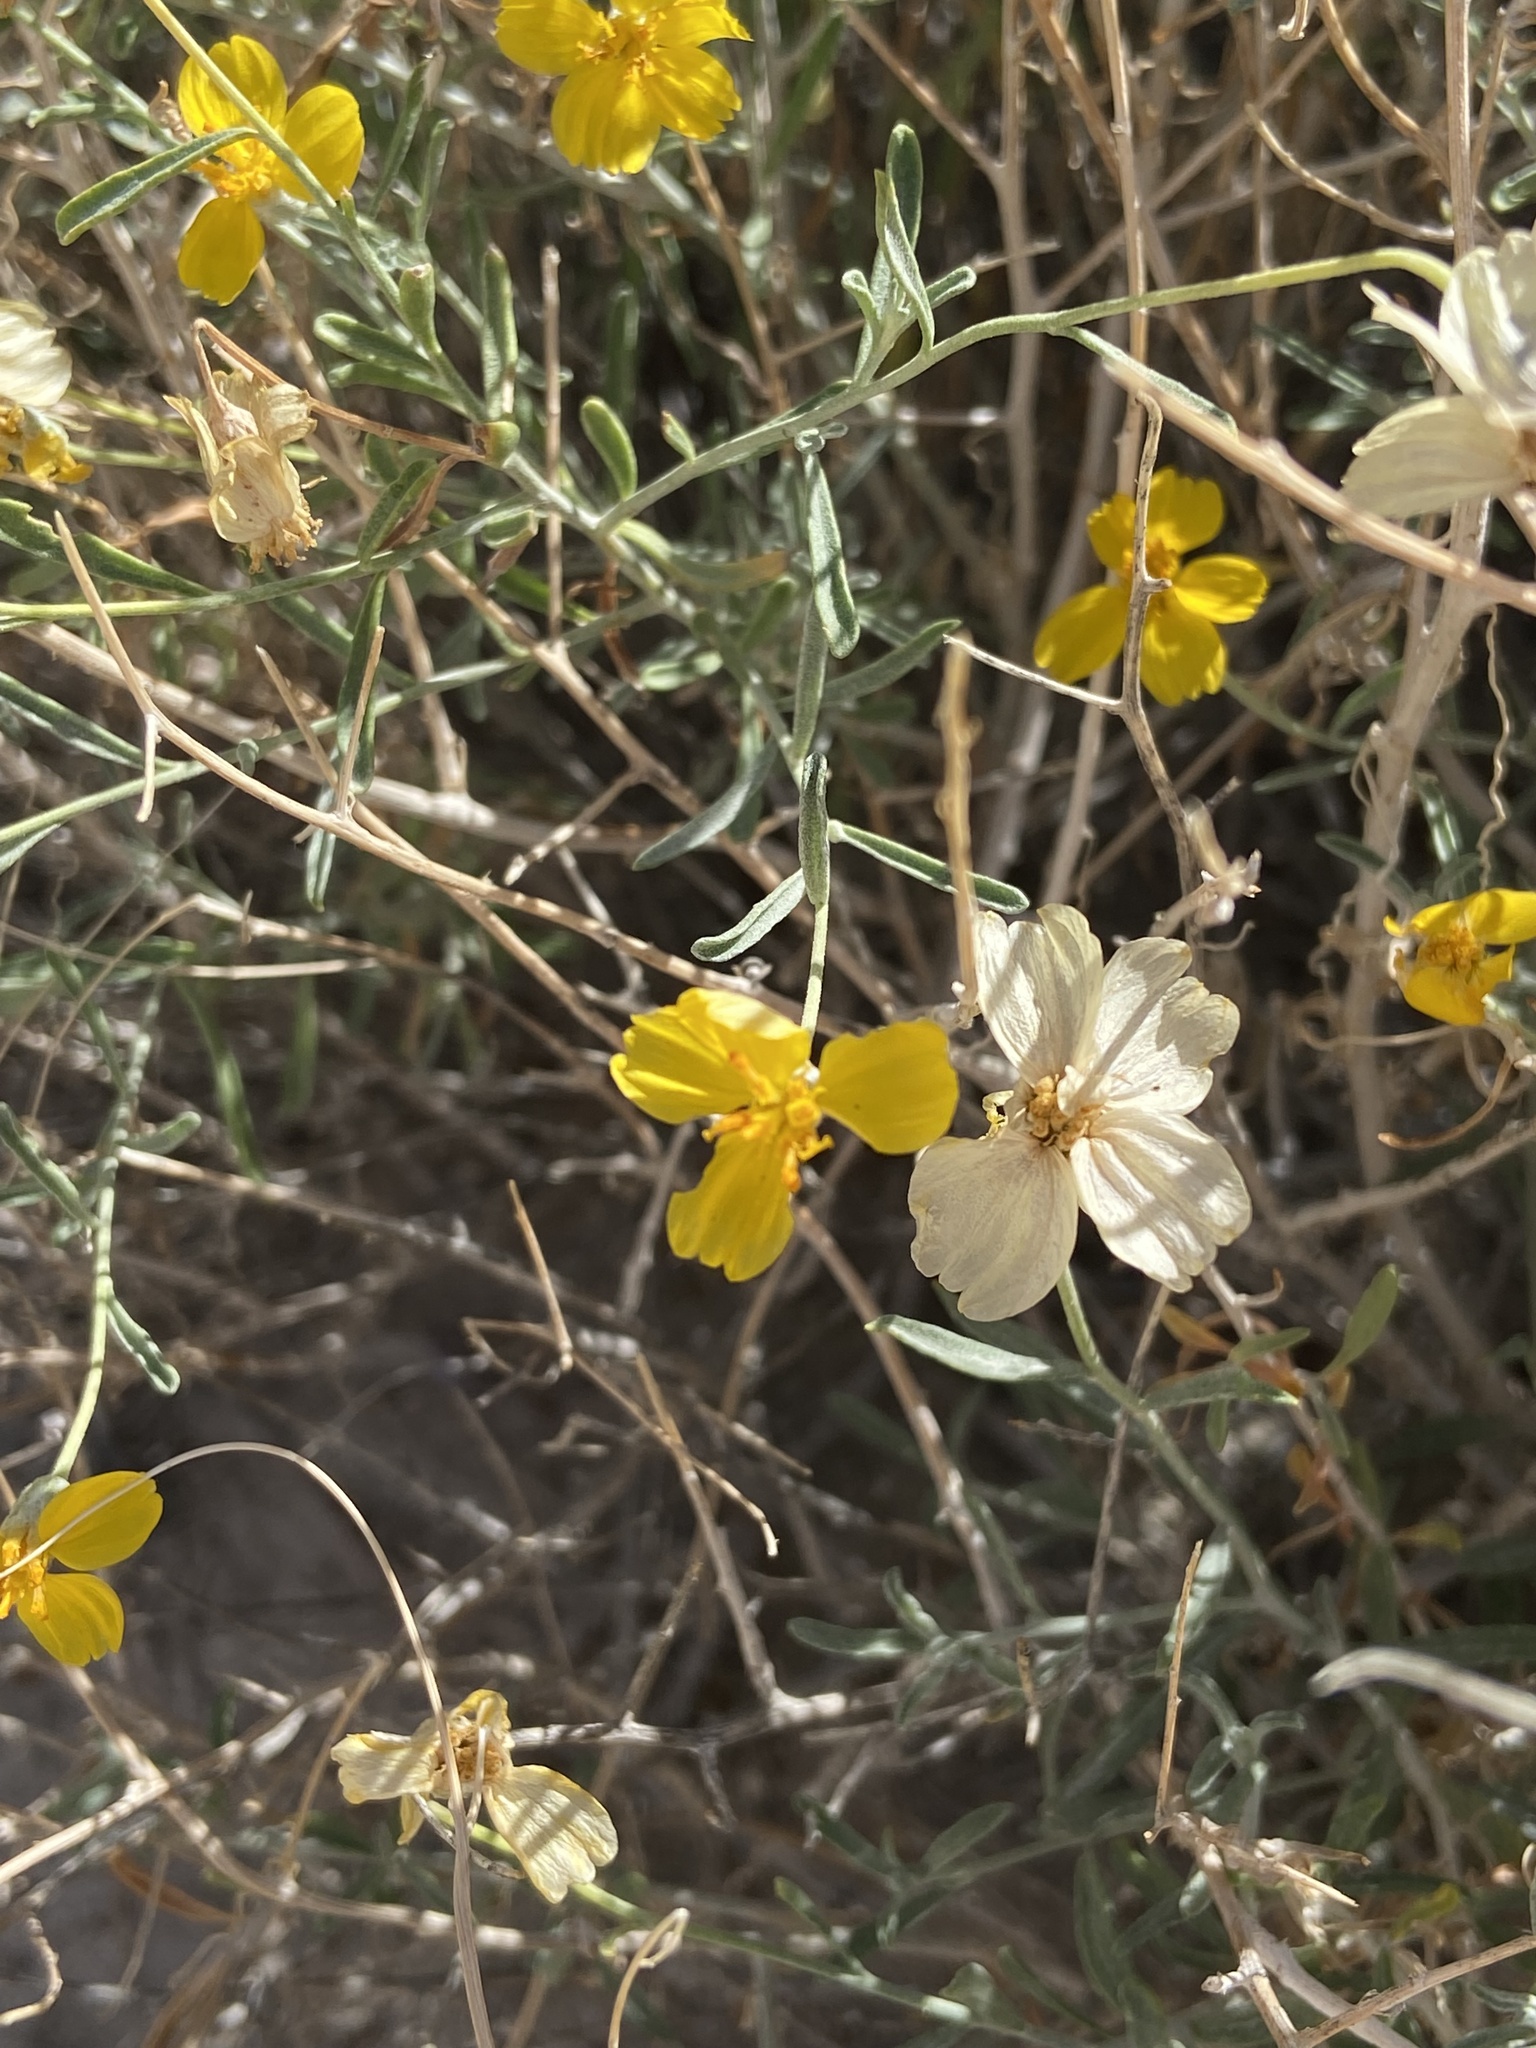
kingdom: Plantae
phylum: Tracheophyta
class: Magnoliopsida
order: Asterales
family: Asteraceae
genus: Psilostrophe
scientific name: Psilostrophe cooperi
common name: White-stem paper-flower
